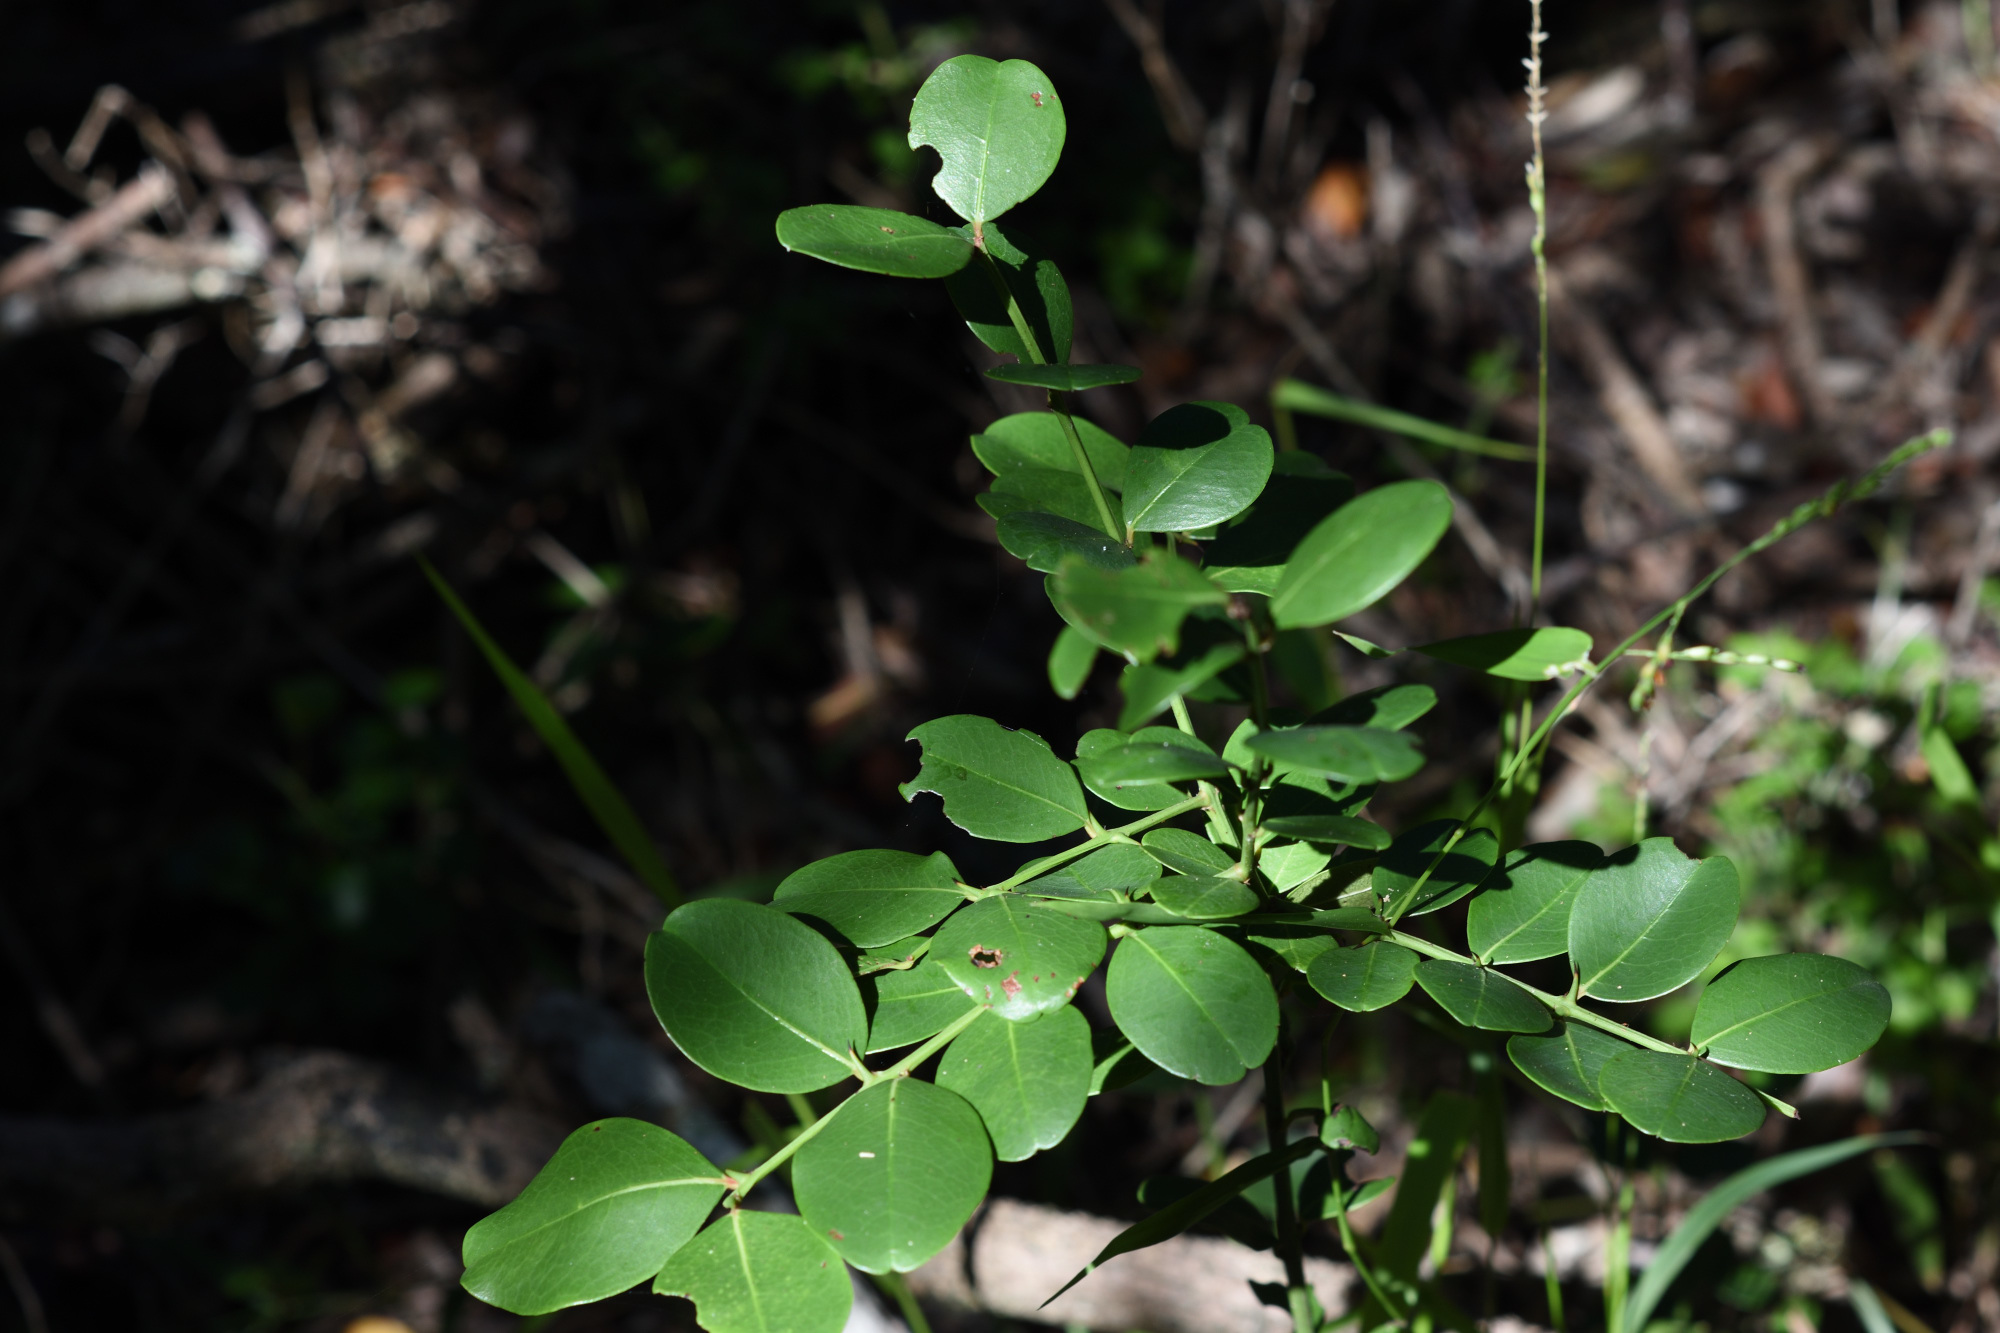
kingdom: Plantae
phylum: Tracheophyta
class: Magnoliopsida
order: Rosales
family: Rhamnaceae
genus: Scutia
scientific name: Scutia myrtina
